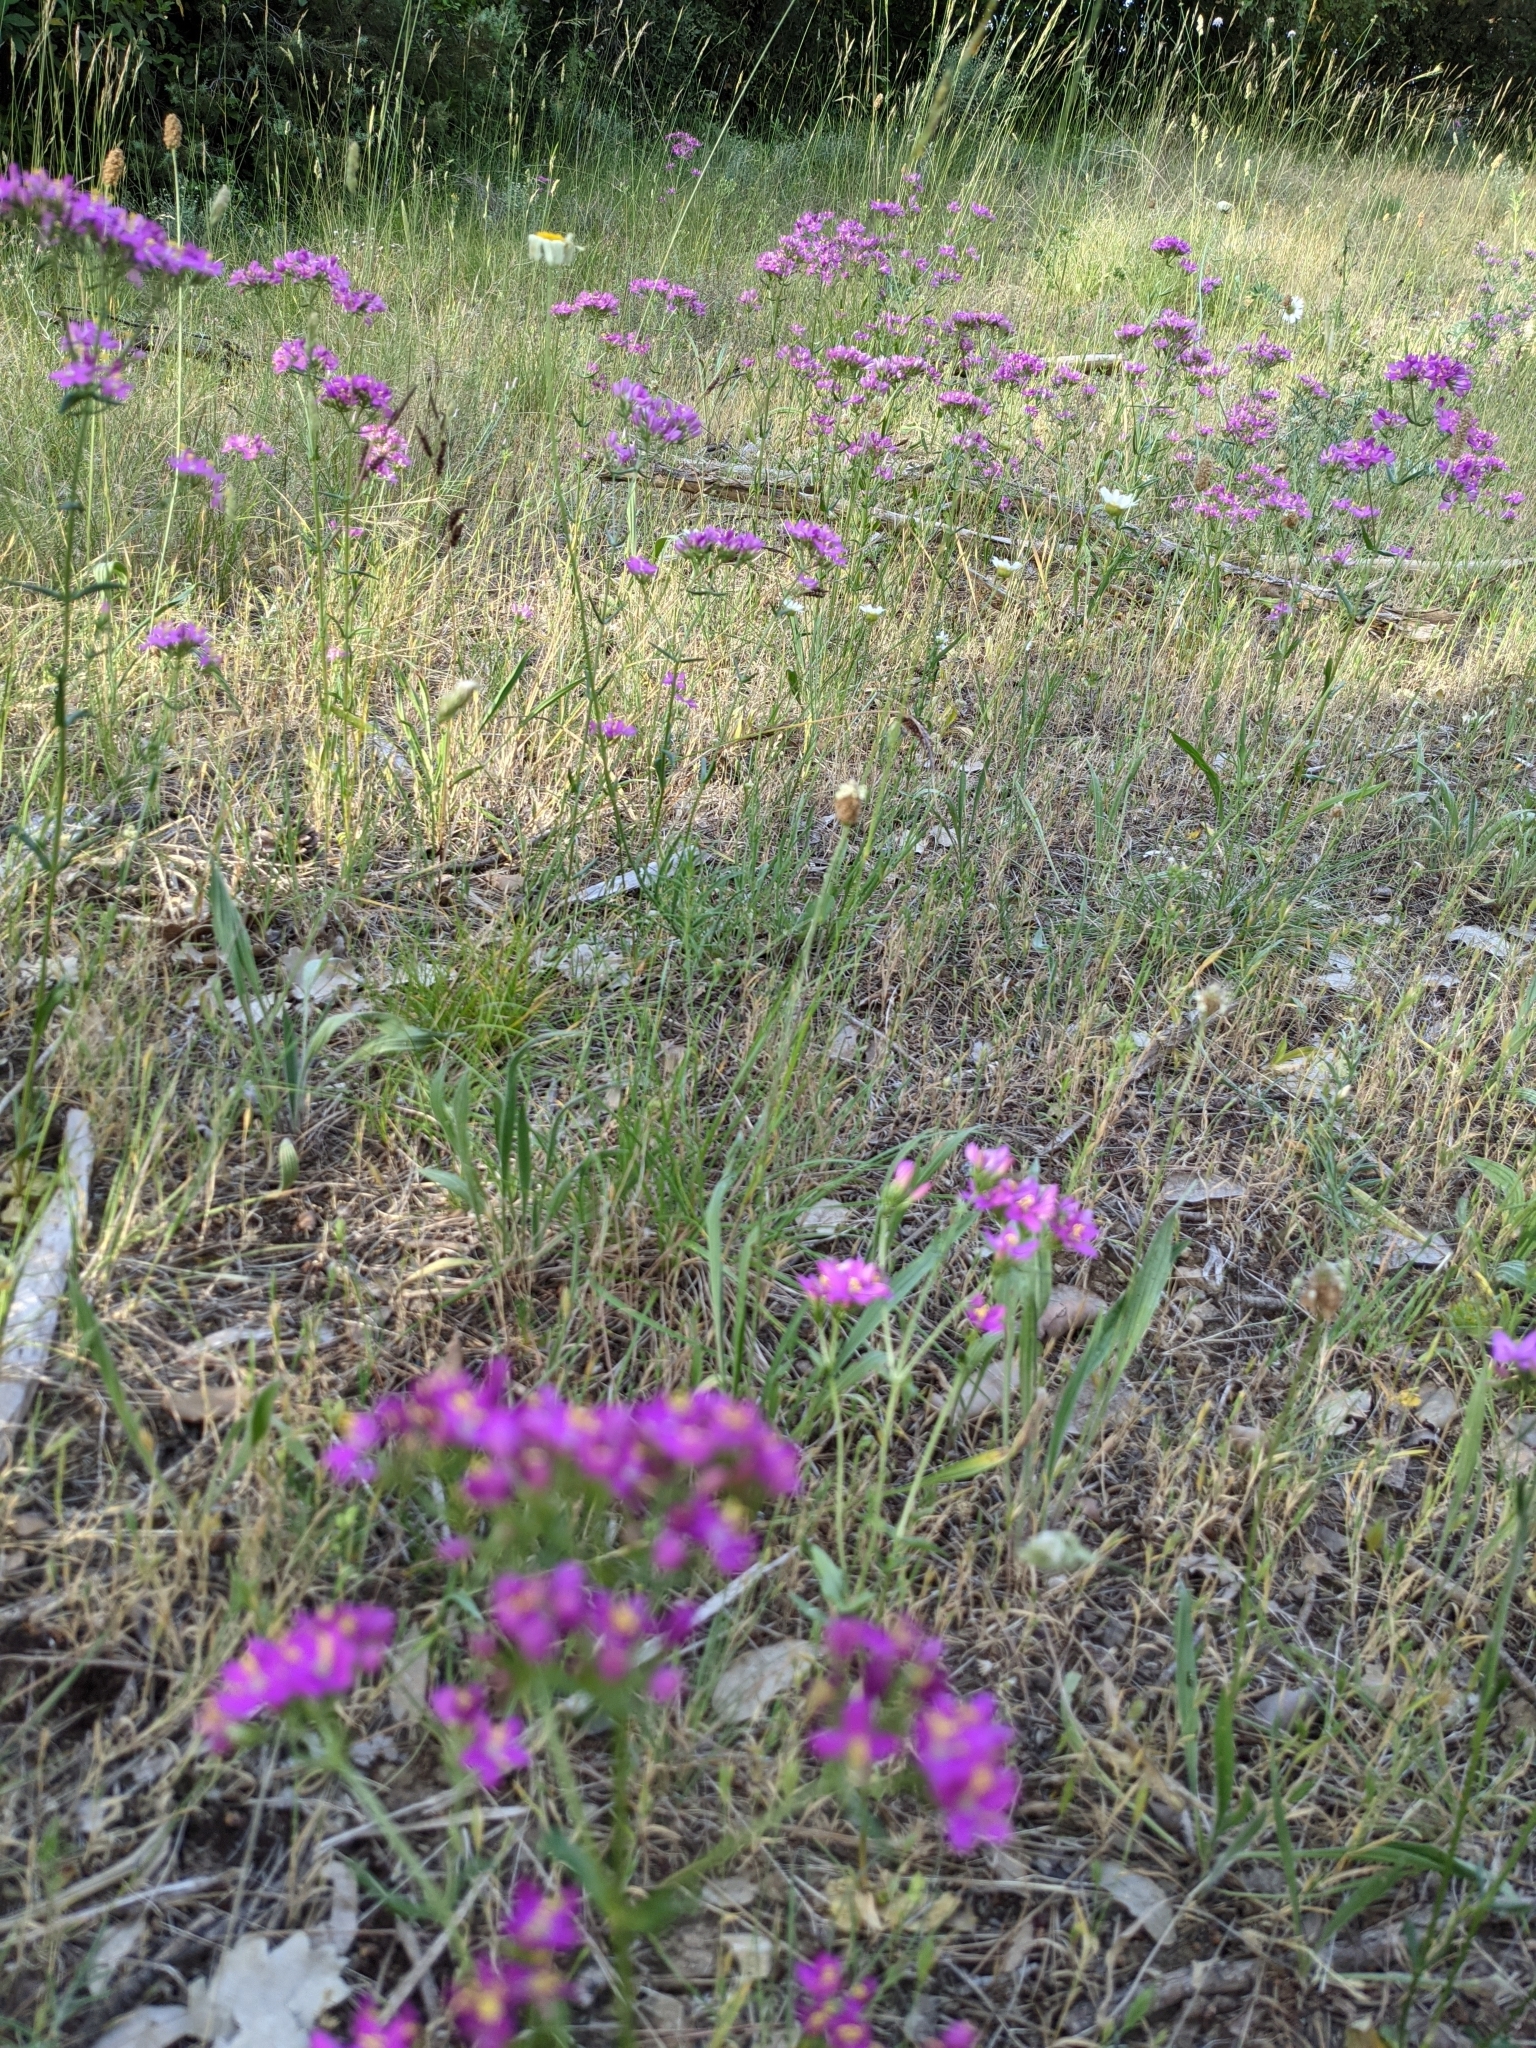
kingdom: Plantae
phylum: Tracheophyta
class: Magnoliopsida
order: Gentianales
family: Gentianaceae
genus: Centaurium
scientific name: Centaurium erythraea
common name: Common centaury
